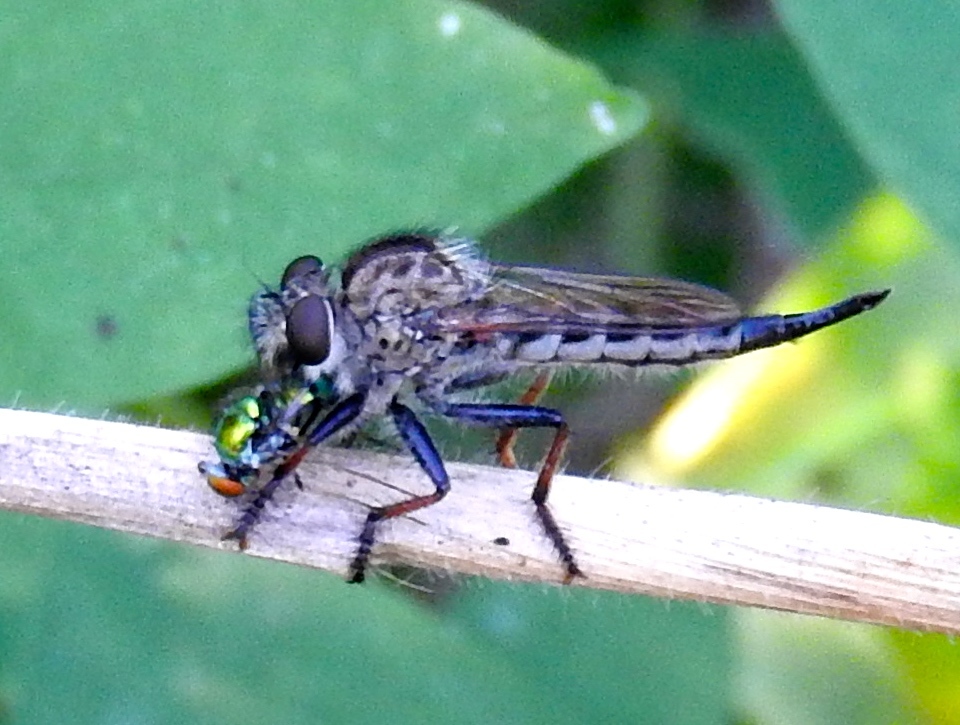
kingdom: Animalia
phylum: Arthropoda
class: Insecta
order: Diptera
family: Asilidae
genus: Efferia
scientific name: Efferia
